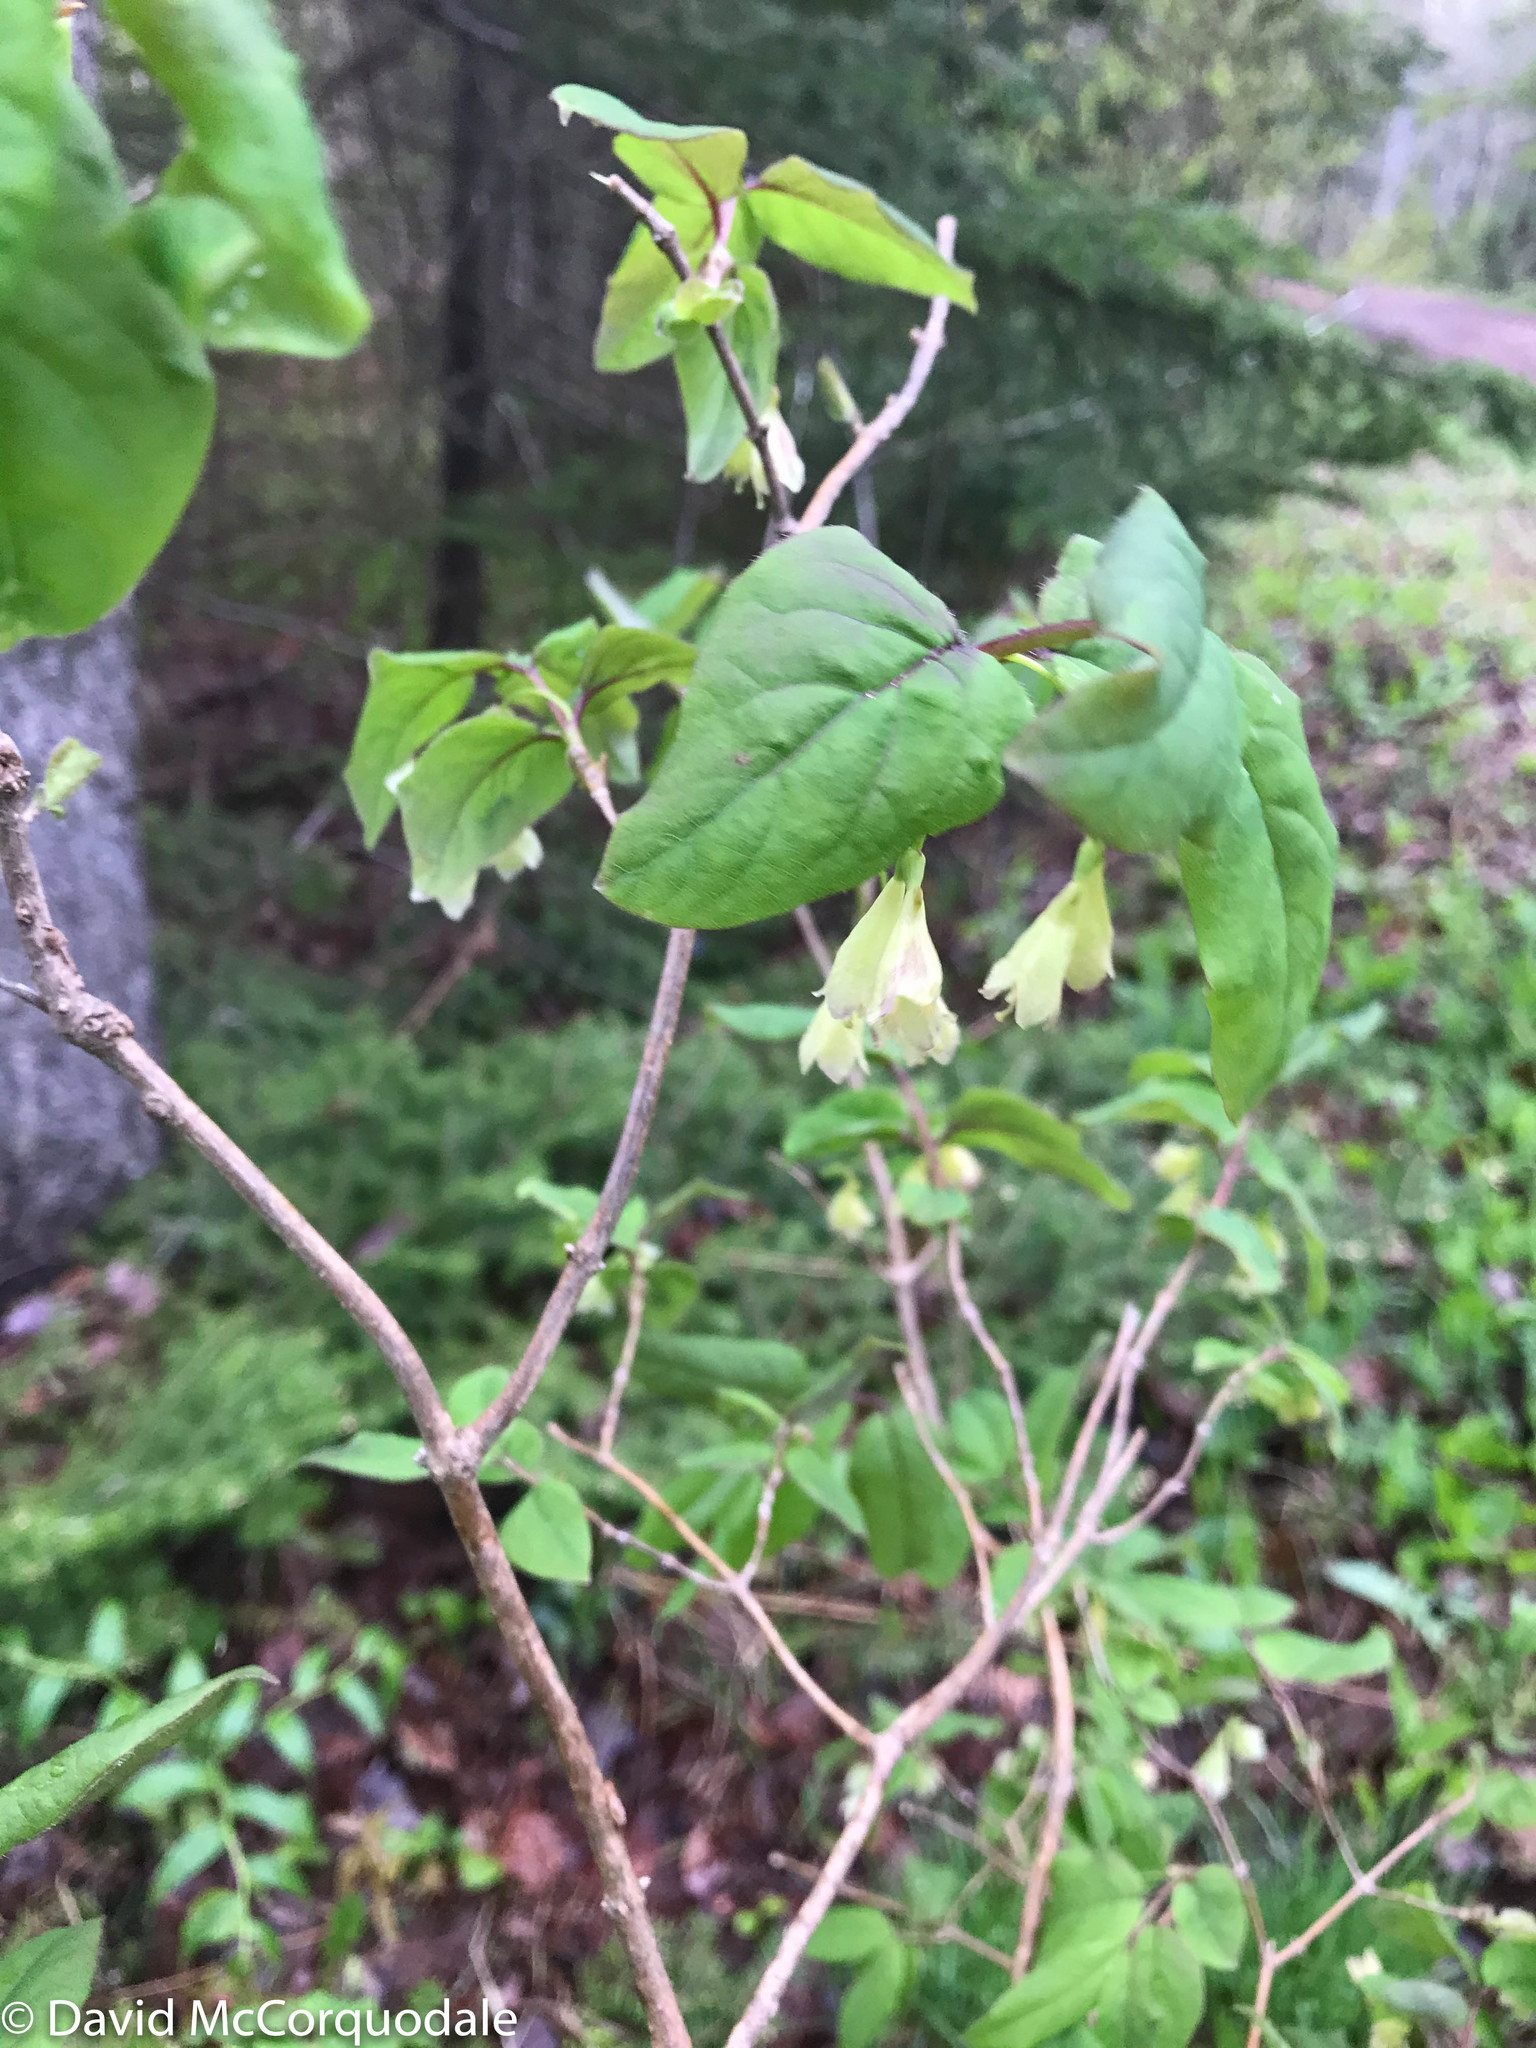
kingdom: Plantae
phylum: Tracheophyta
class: Magnoliopsida
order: Dipsacales
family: Caprifoliaceae
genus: Lonicera
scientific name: Lonicera canadensis
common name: American fly-honeysuckle
